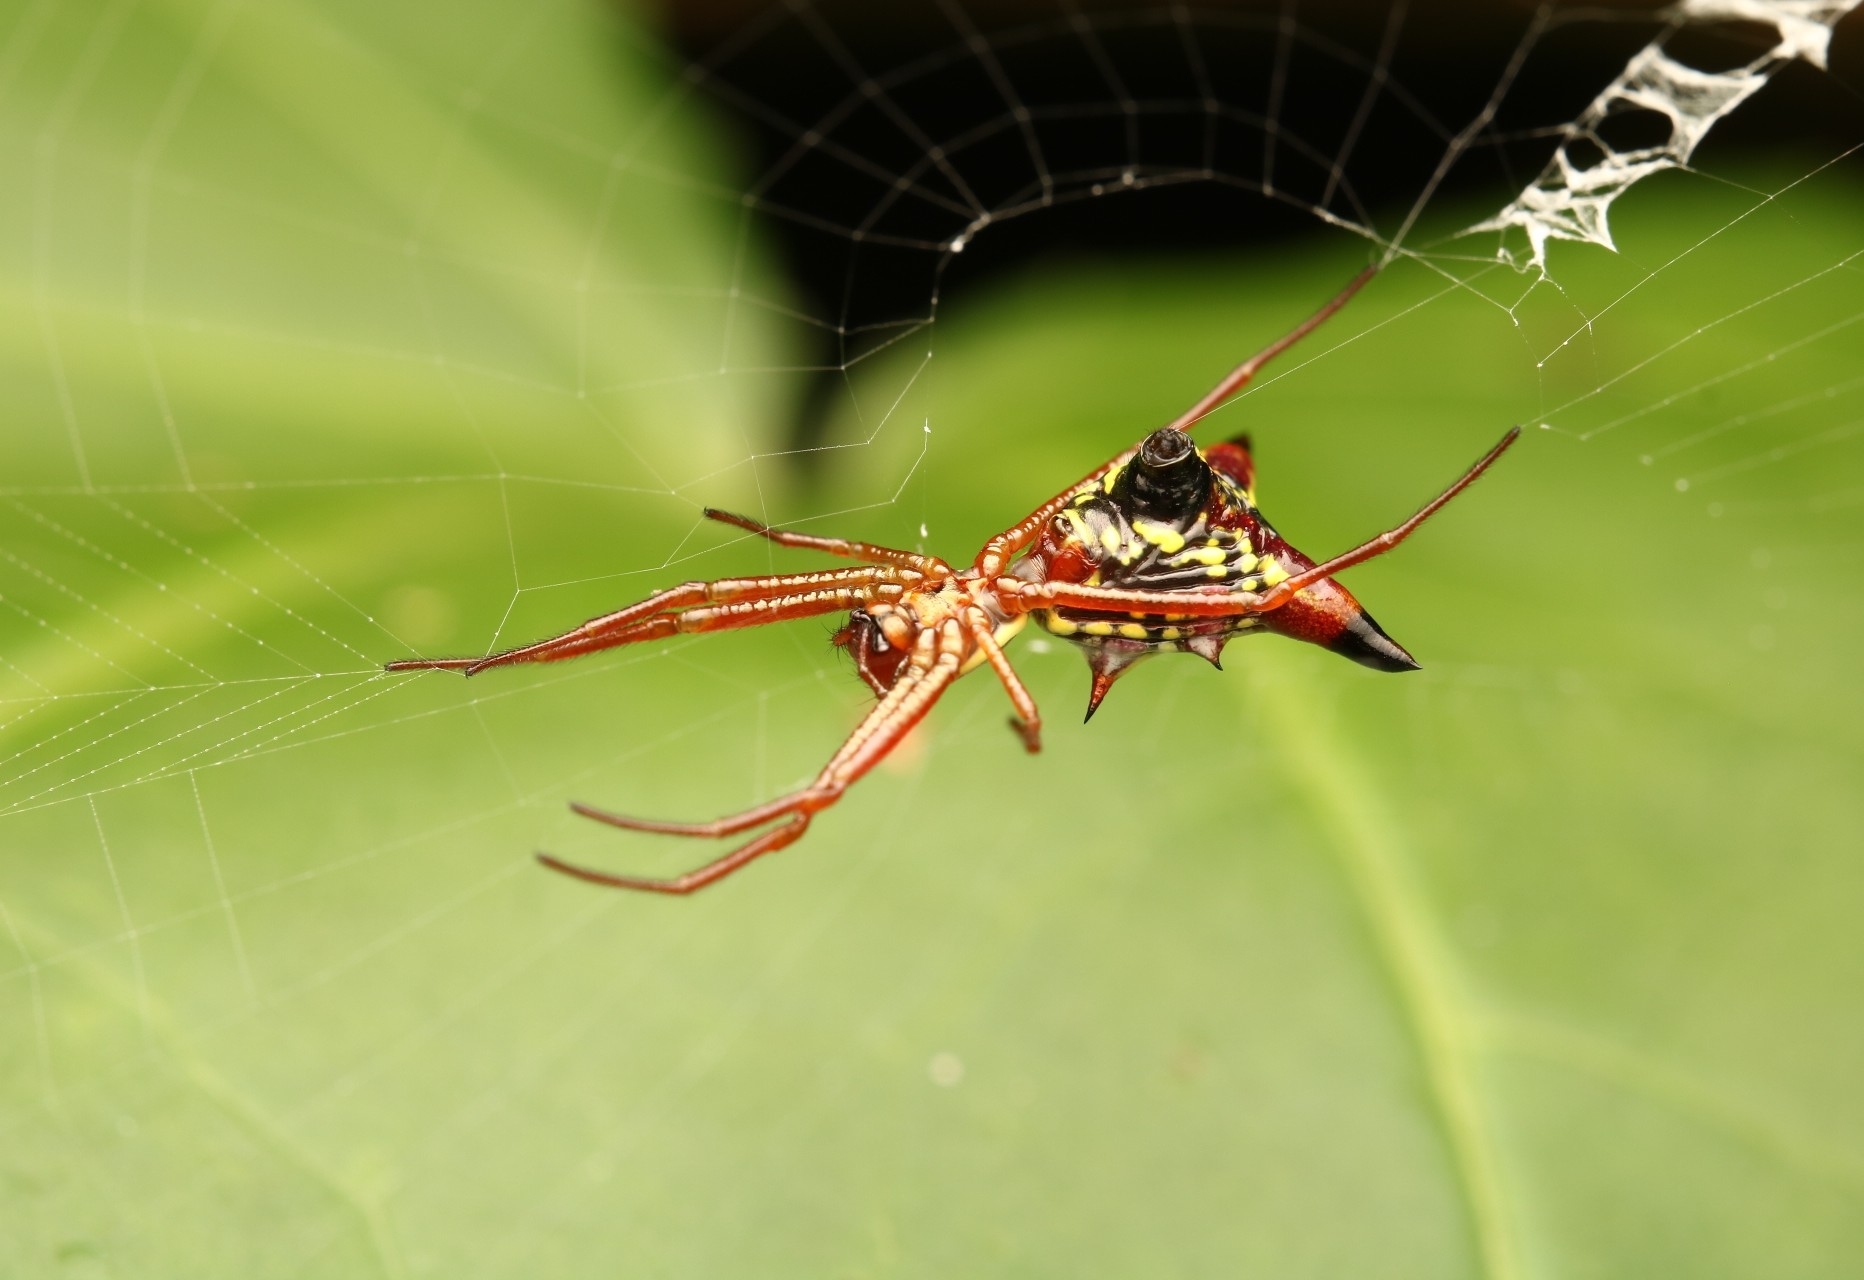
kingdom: Animalia
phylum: Arthropoda
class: Arachnida
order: Araneae
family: Araneidae
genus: Micrathena
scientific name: Micrathena sagittata
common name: Orb weavers
